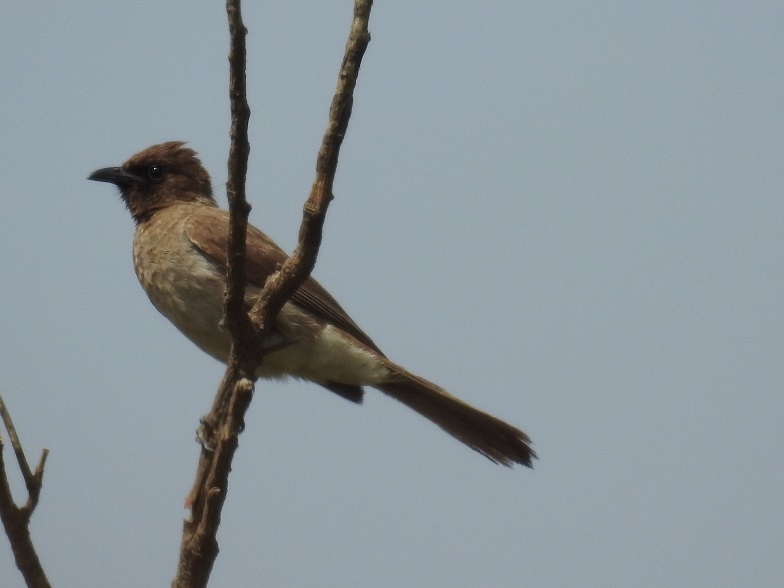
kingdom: Animalia
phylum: Chordata
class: Aves
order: Passeriformes
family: Pycnonotidae
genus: Pycnonotus
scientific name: Pycnonotus barbatus
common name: Common bulbul
